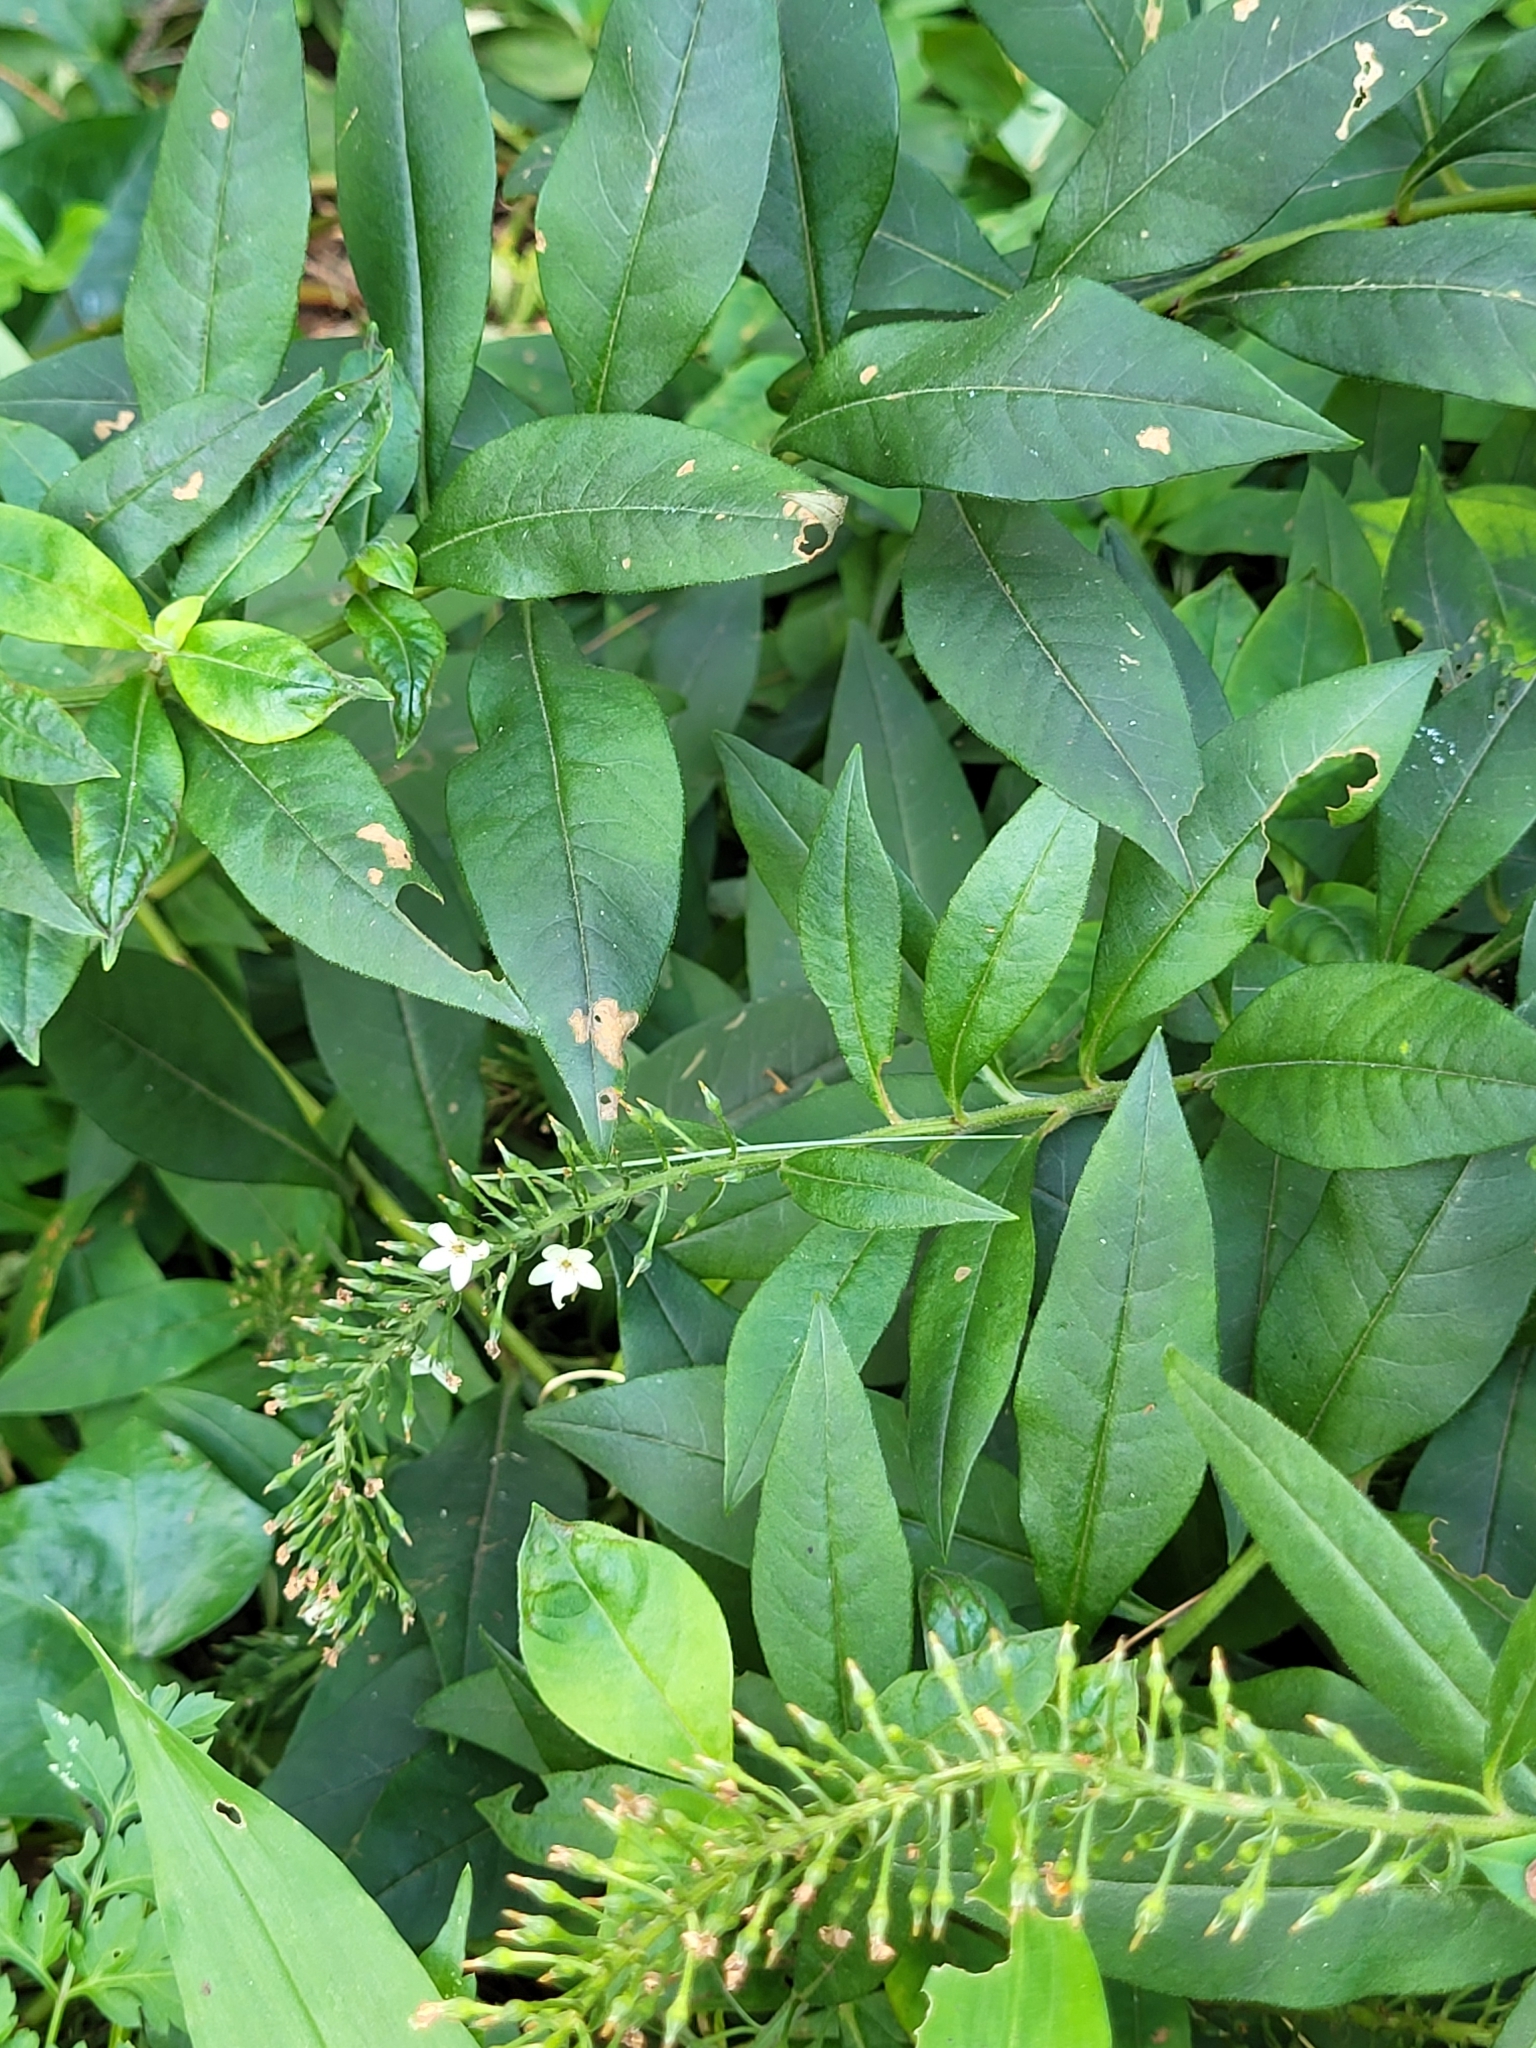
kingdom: Plantae
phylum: Tracheophyta
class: Magnoliopsida
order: Ericales
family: Primulaceae
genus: Lysimachia
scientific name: Lysimachia clethroides
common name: Gooseneck loosestrife
